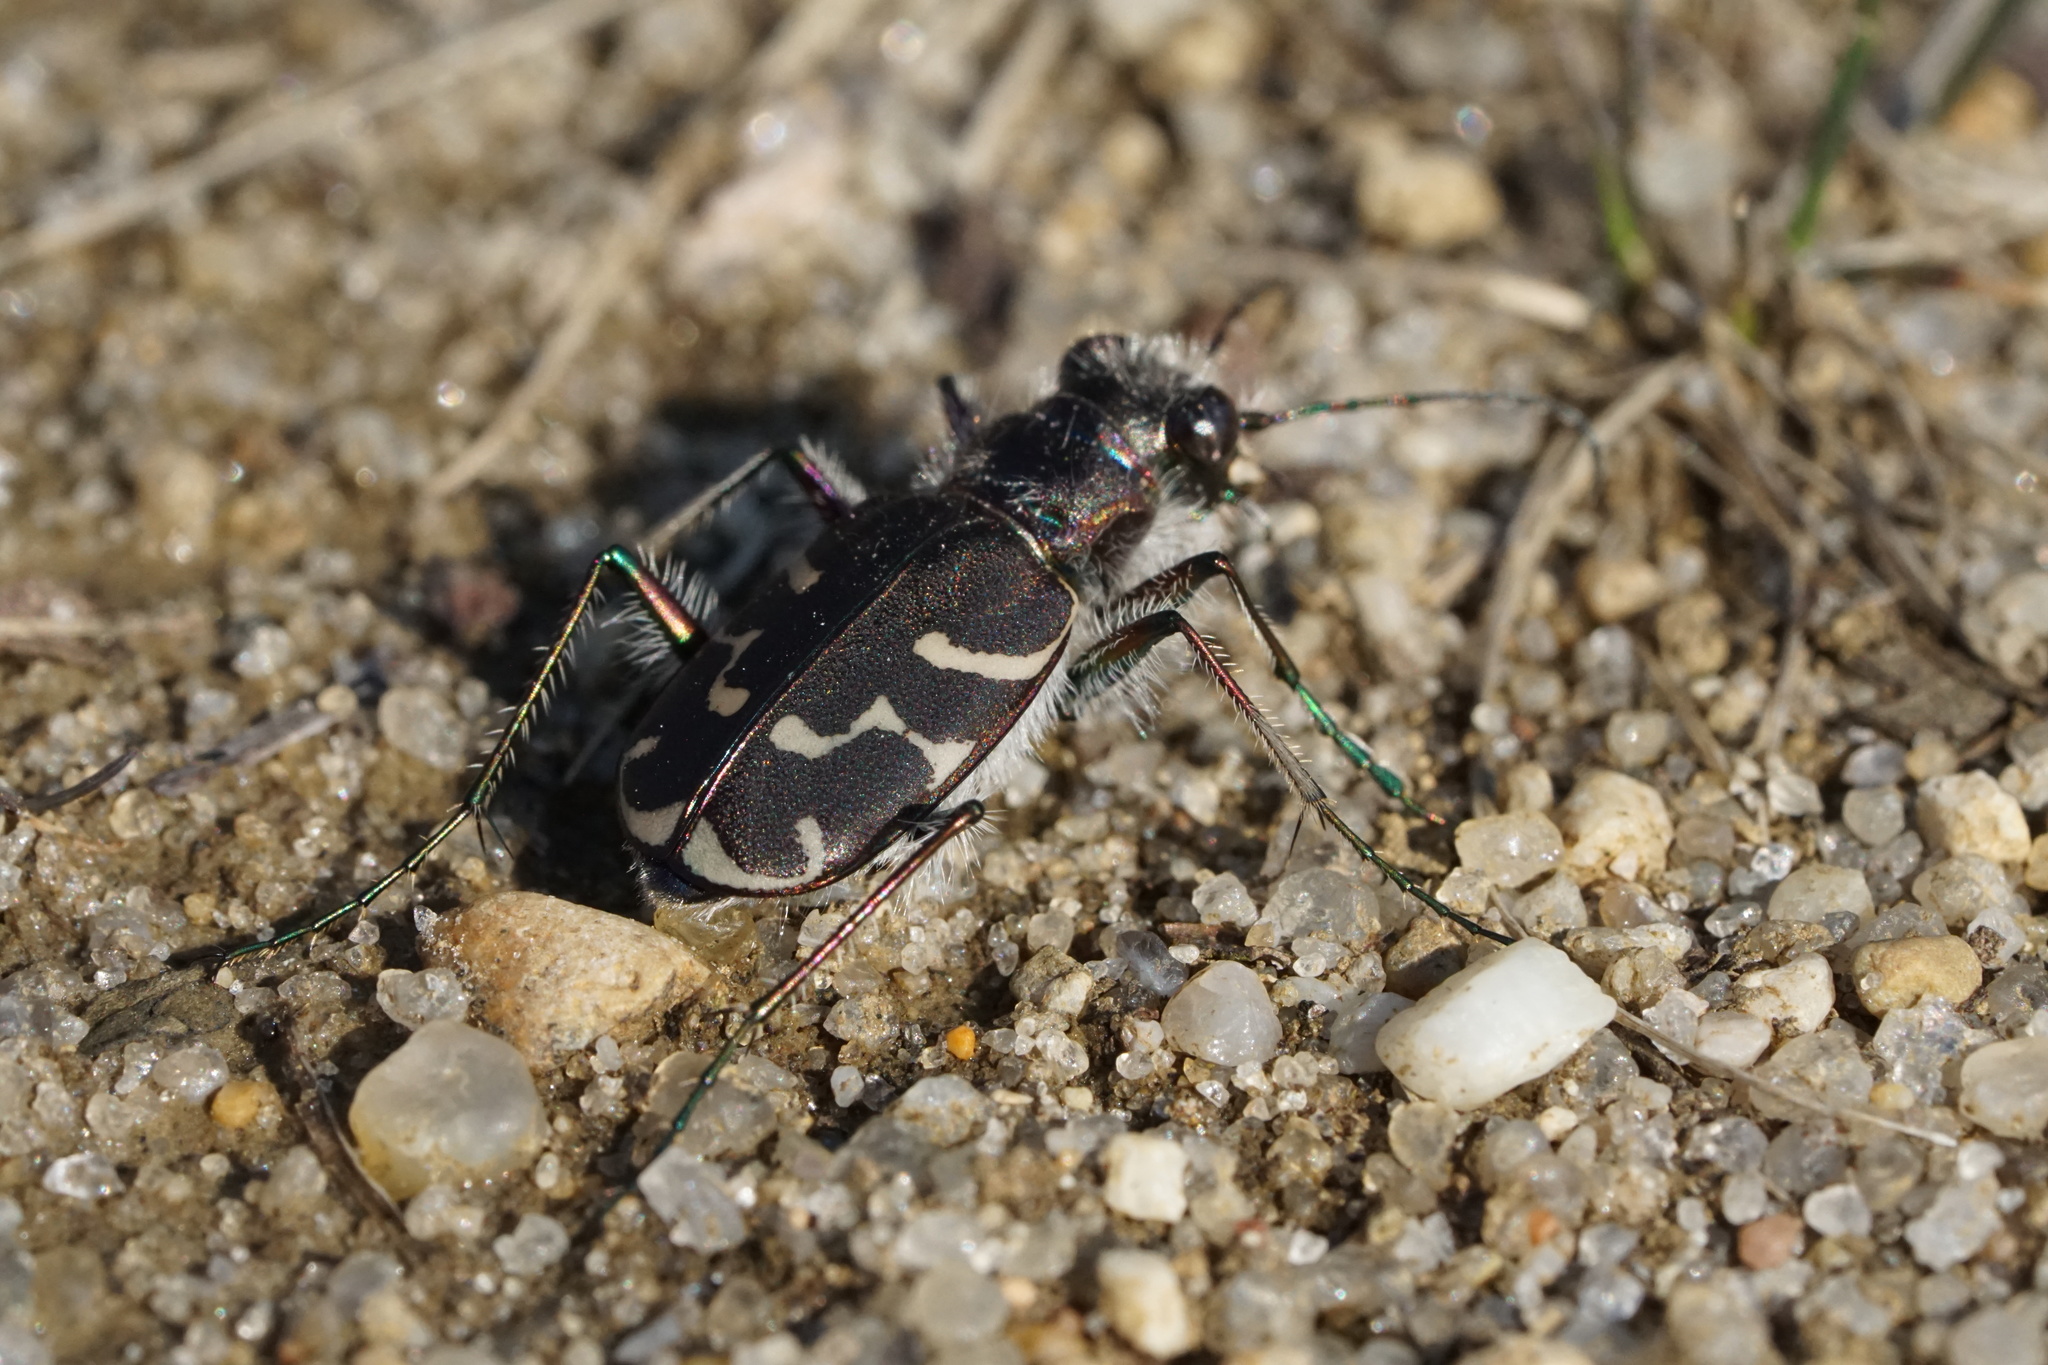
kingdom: Animalia
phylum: Arthropoda
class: Insecta
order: Coleoptera
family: Carabidae
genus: Cicindela
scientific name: Cicindela tranquebarica
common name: Oblique-lined tiger beetle
